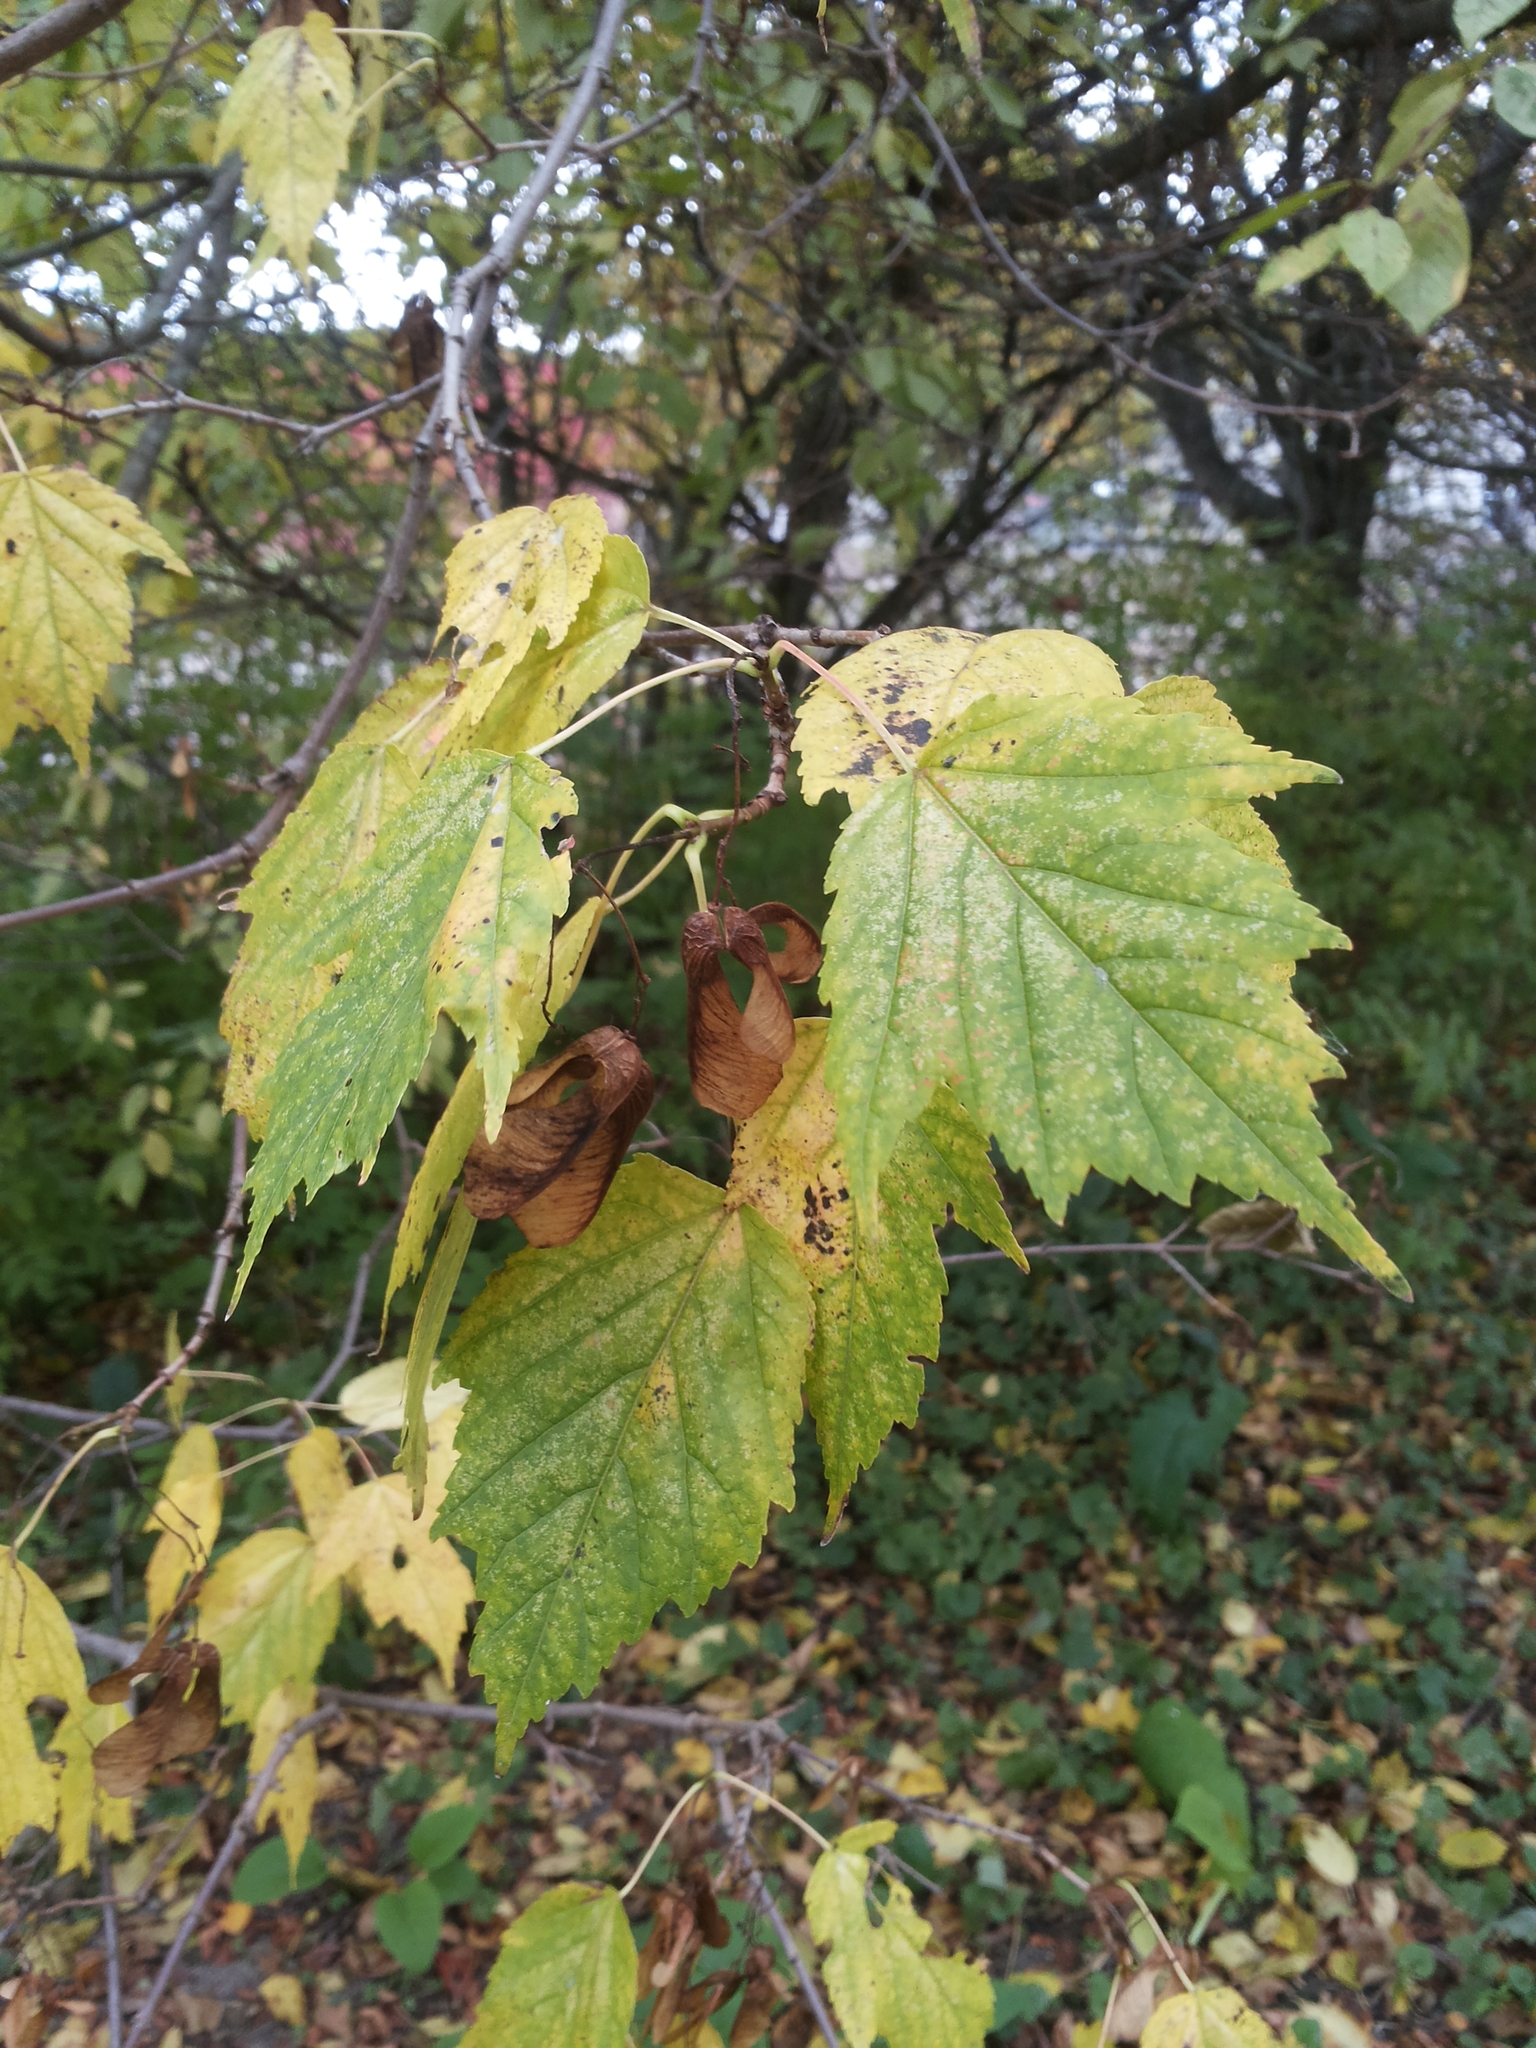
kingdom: Plantae
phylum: Tracheophyta
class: Magnoliopsida
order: Sapindales
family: Sapindaceae
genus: Acer
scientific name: Acer tataricum
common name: Tartar maple
